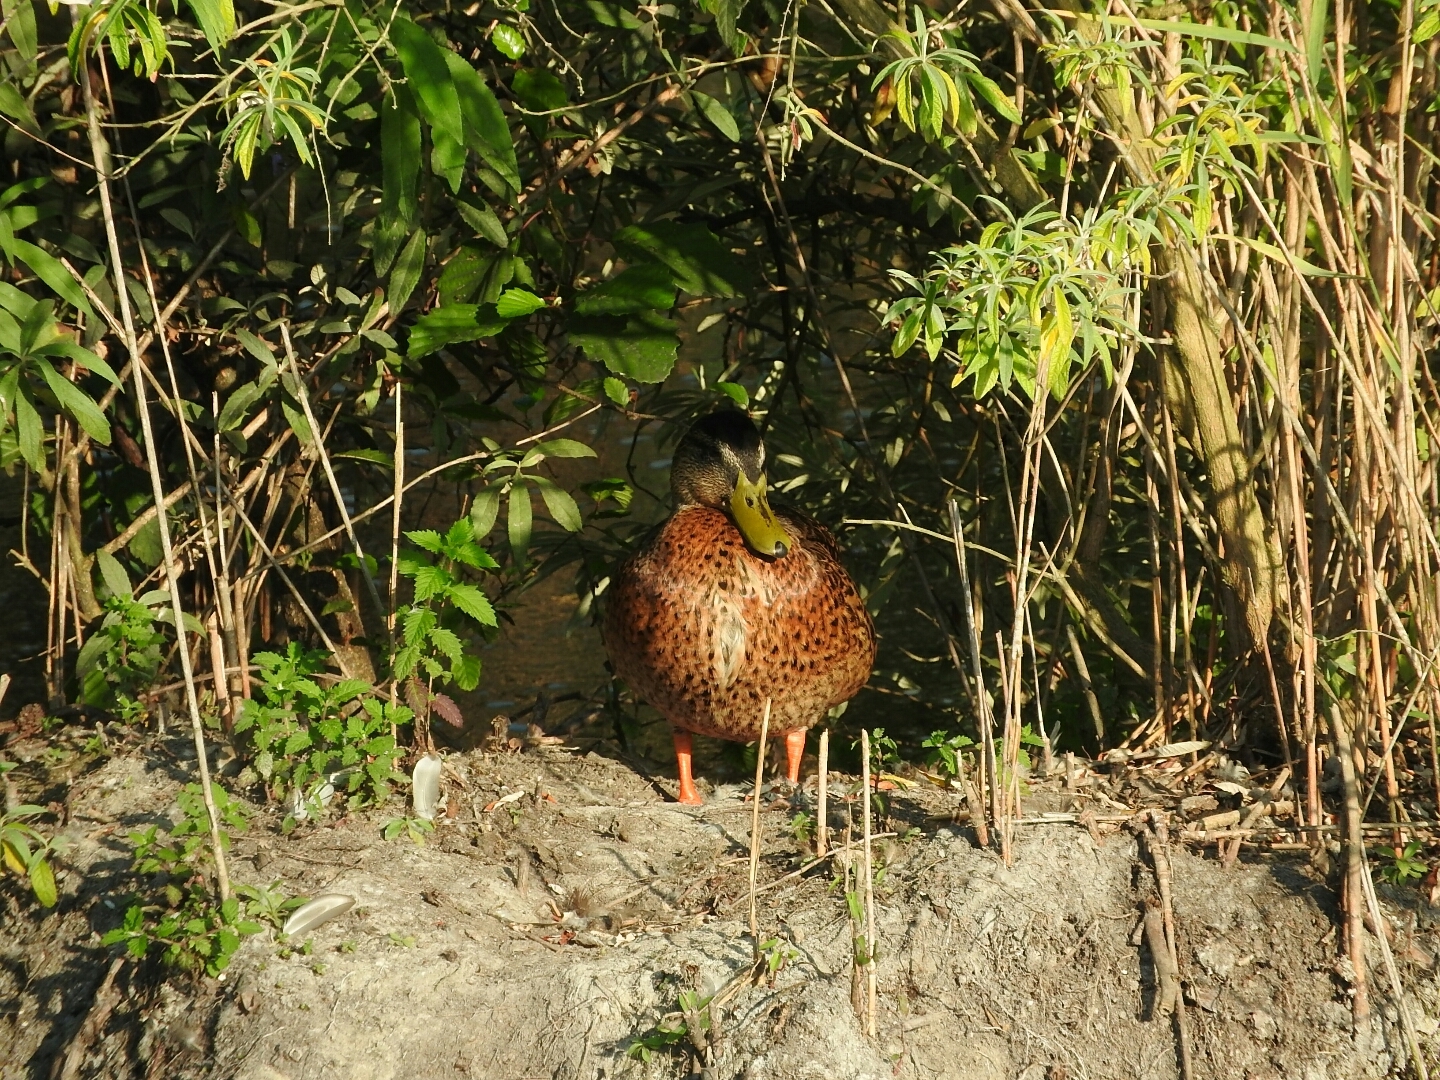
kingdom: Animalia
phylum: Chordata
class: Aves
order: Anseriformes
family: Anatidae
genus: Anas
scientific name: Anas platyrhynchos
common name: Mallard
